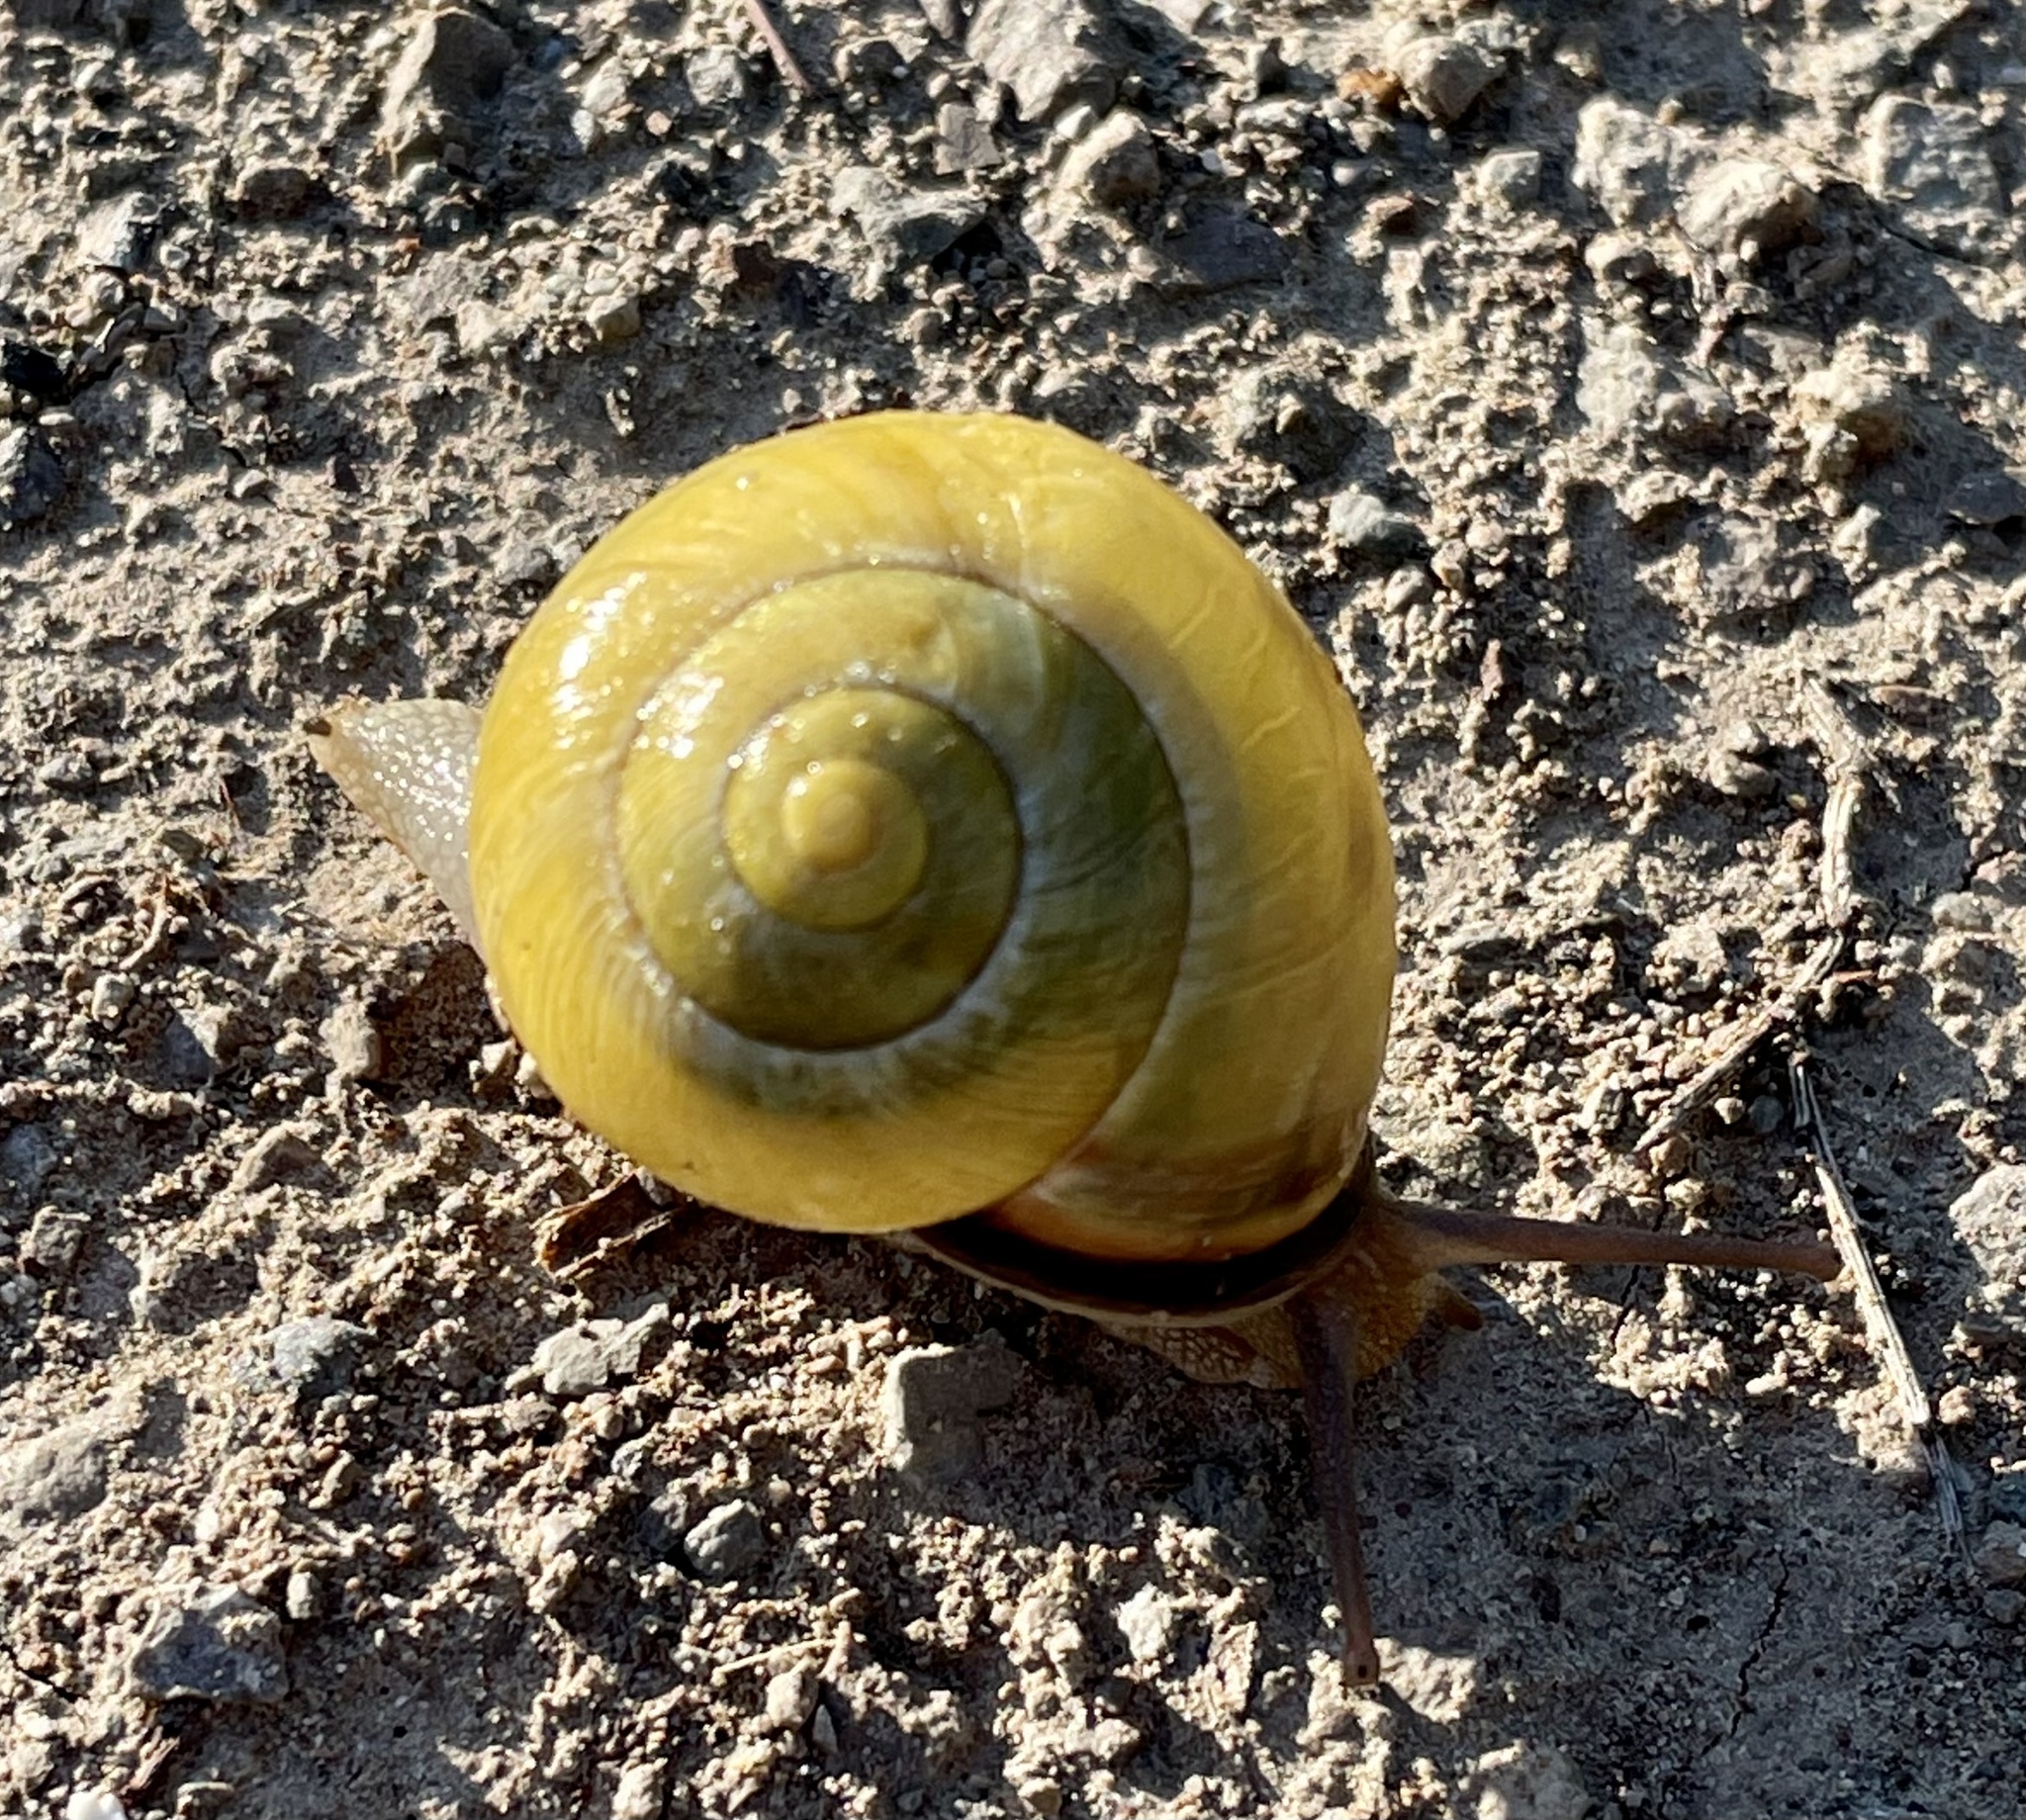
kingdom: Animalia
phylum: Mollusca
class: Gastropoda
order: Stylommatophora
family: Helicidae
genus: Cepaea
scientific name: Cepaea nemoralis
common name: Grovesnail
